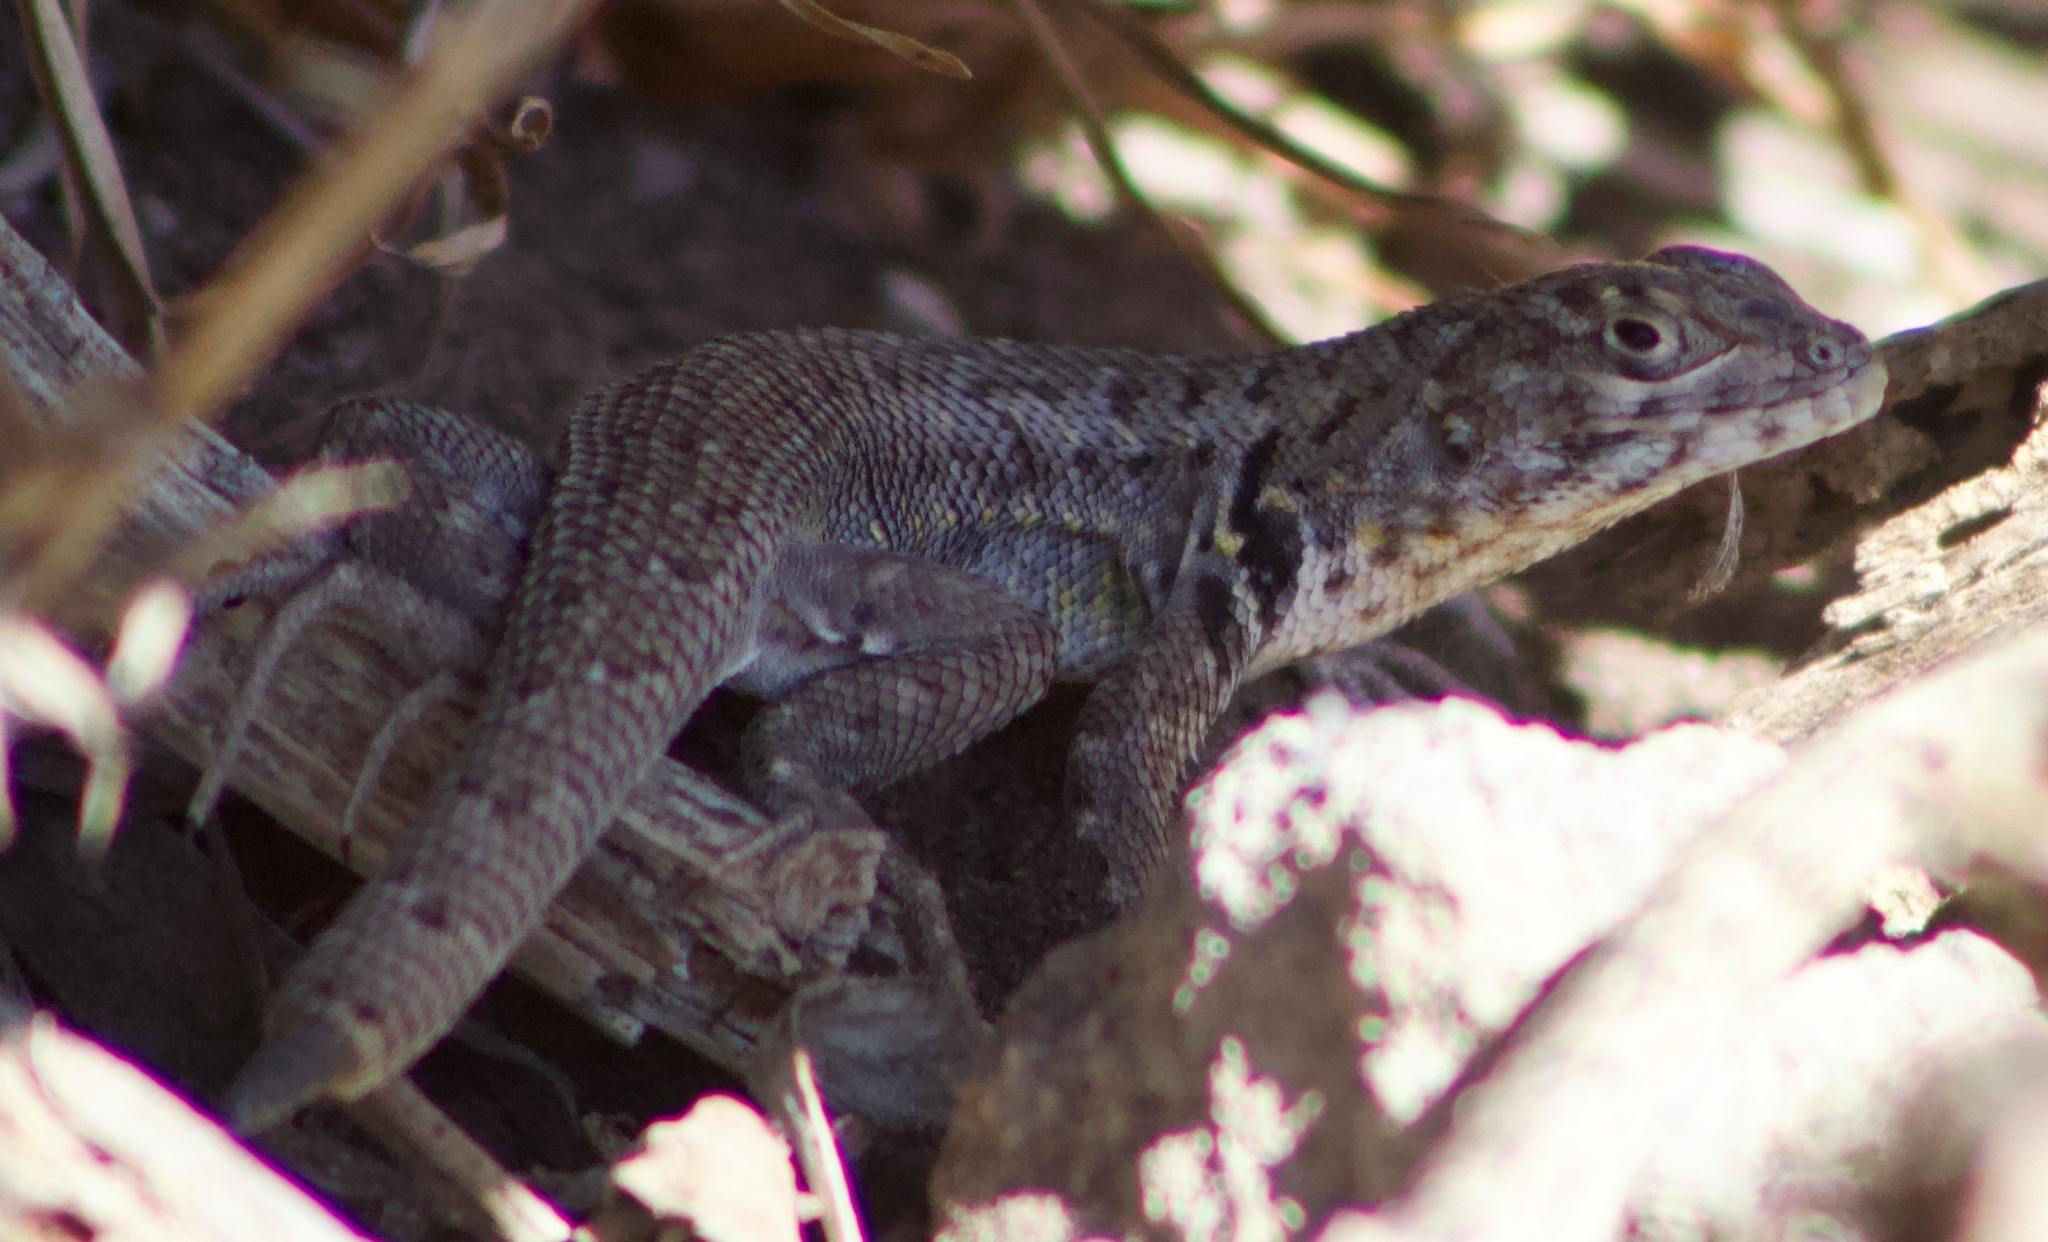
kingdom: Animalia
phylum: Chordata
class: Squamata
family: Liolaemidae
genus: Liolaemus
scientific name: Liolaemus zapallarensis
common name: Zapallaren tree iguana
